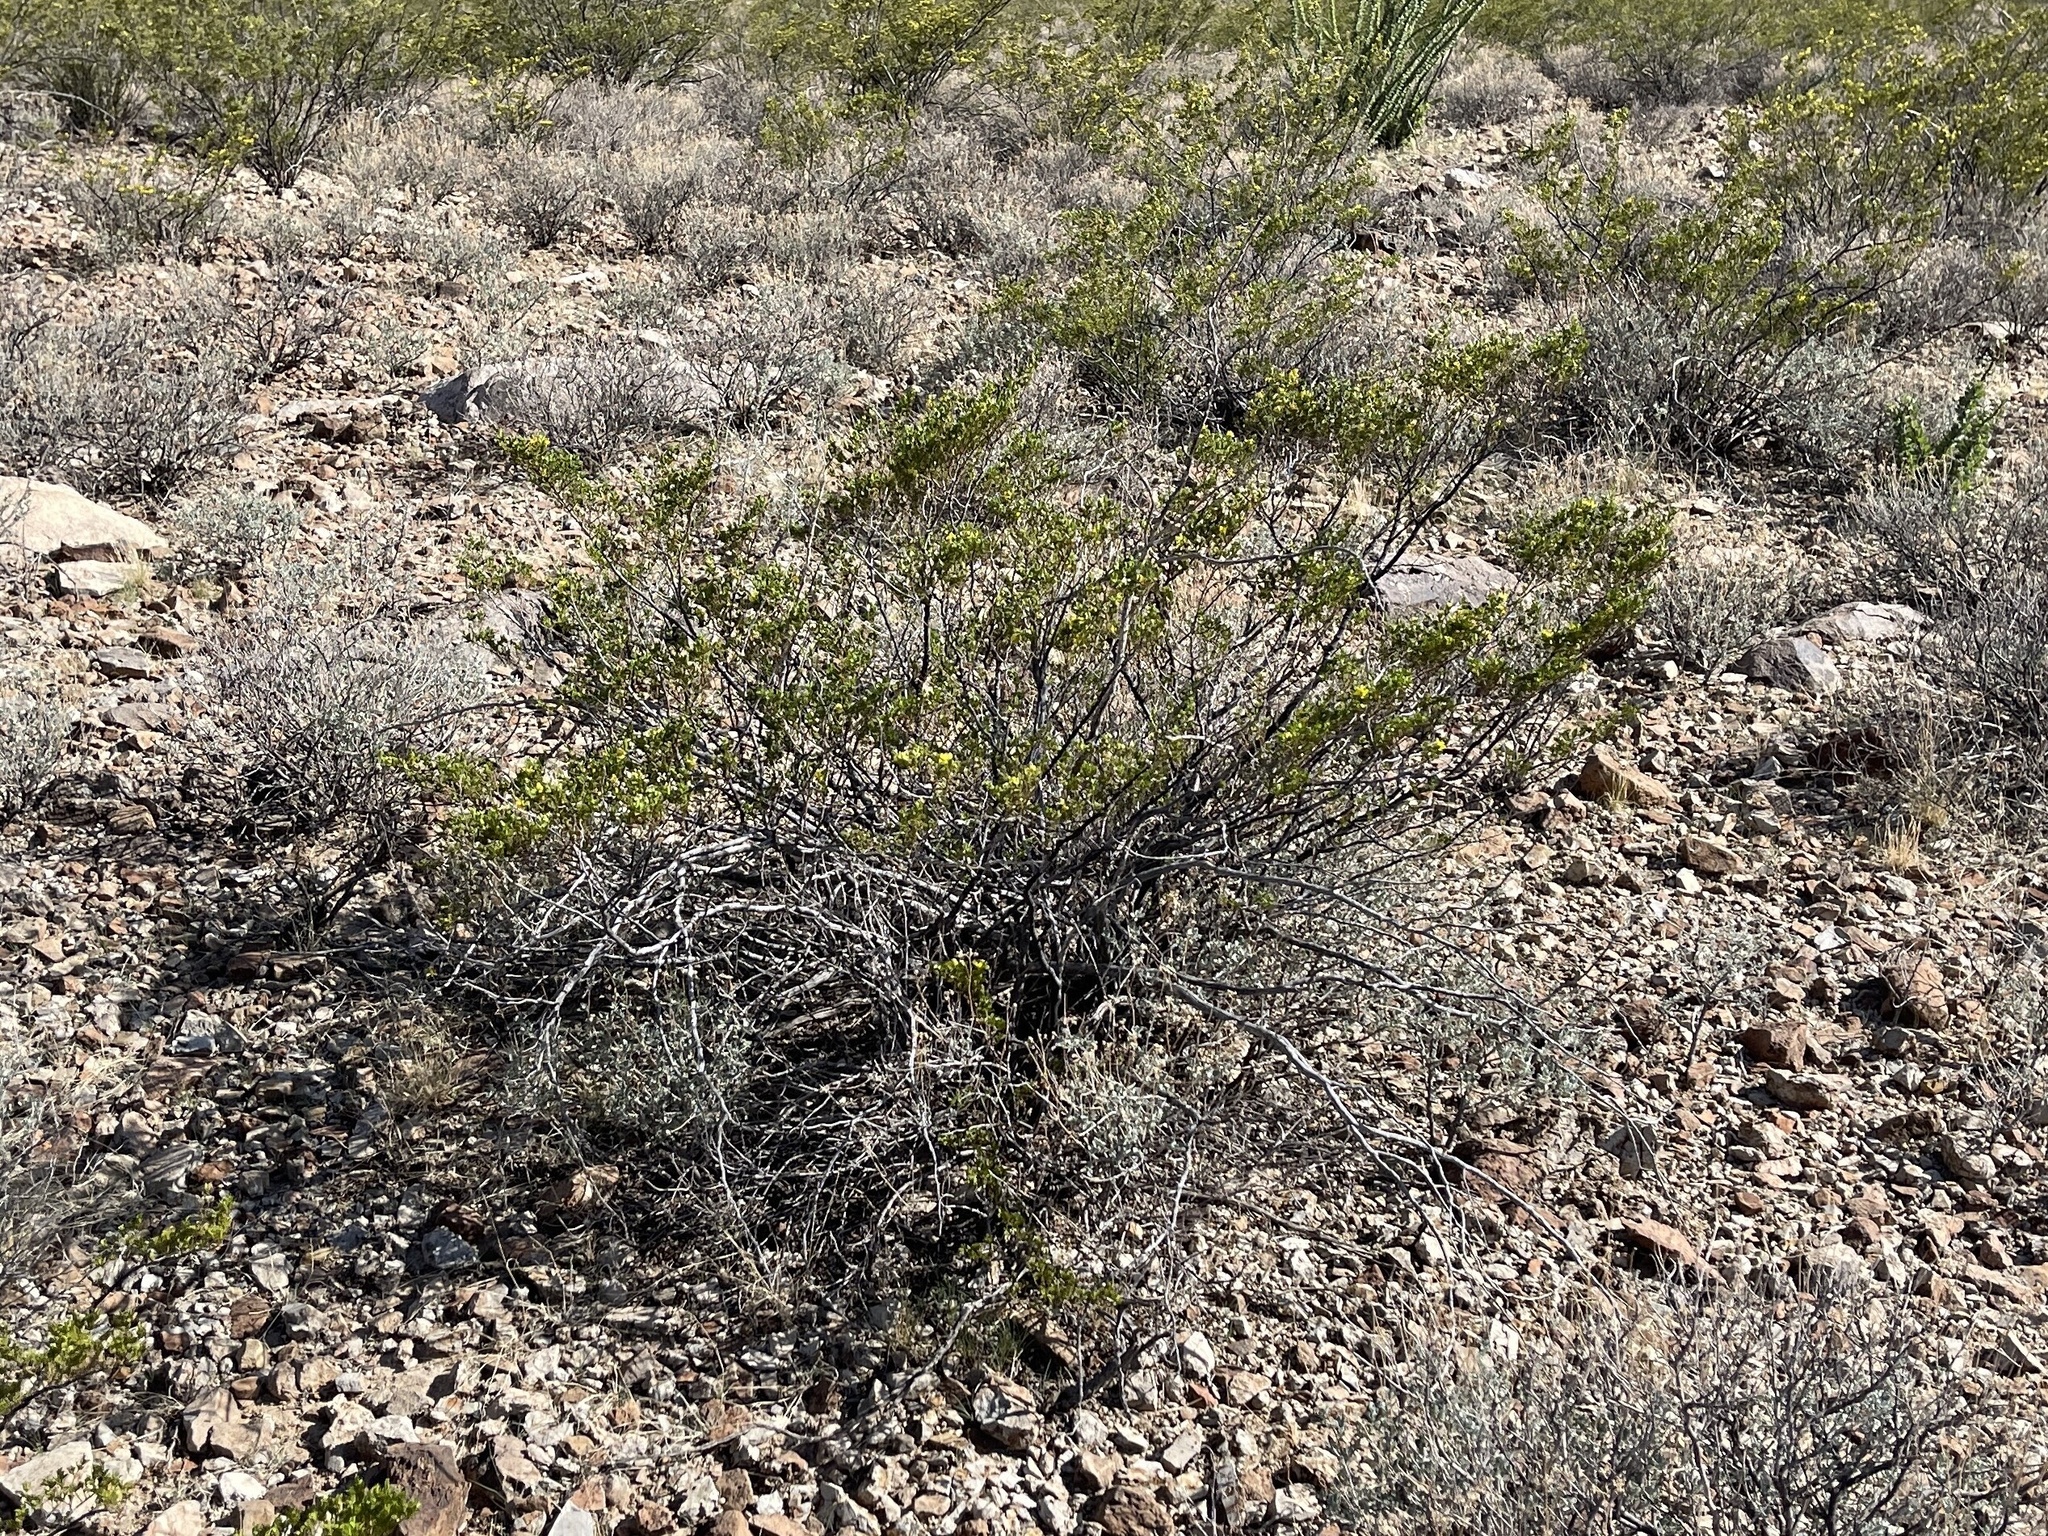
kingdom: Plantae
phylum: Tracheophyta
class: Magnoliopsida
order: Zygophyllales
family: Zygophyllaceae
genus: Larrea
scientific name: Larrea tridentata
